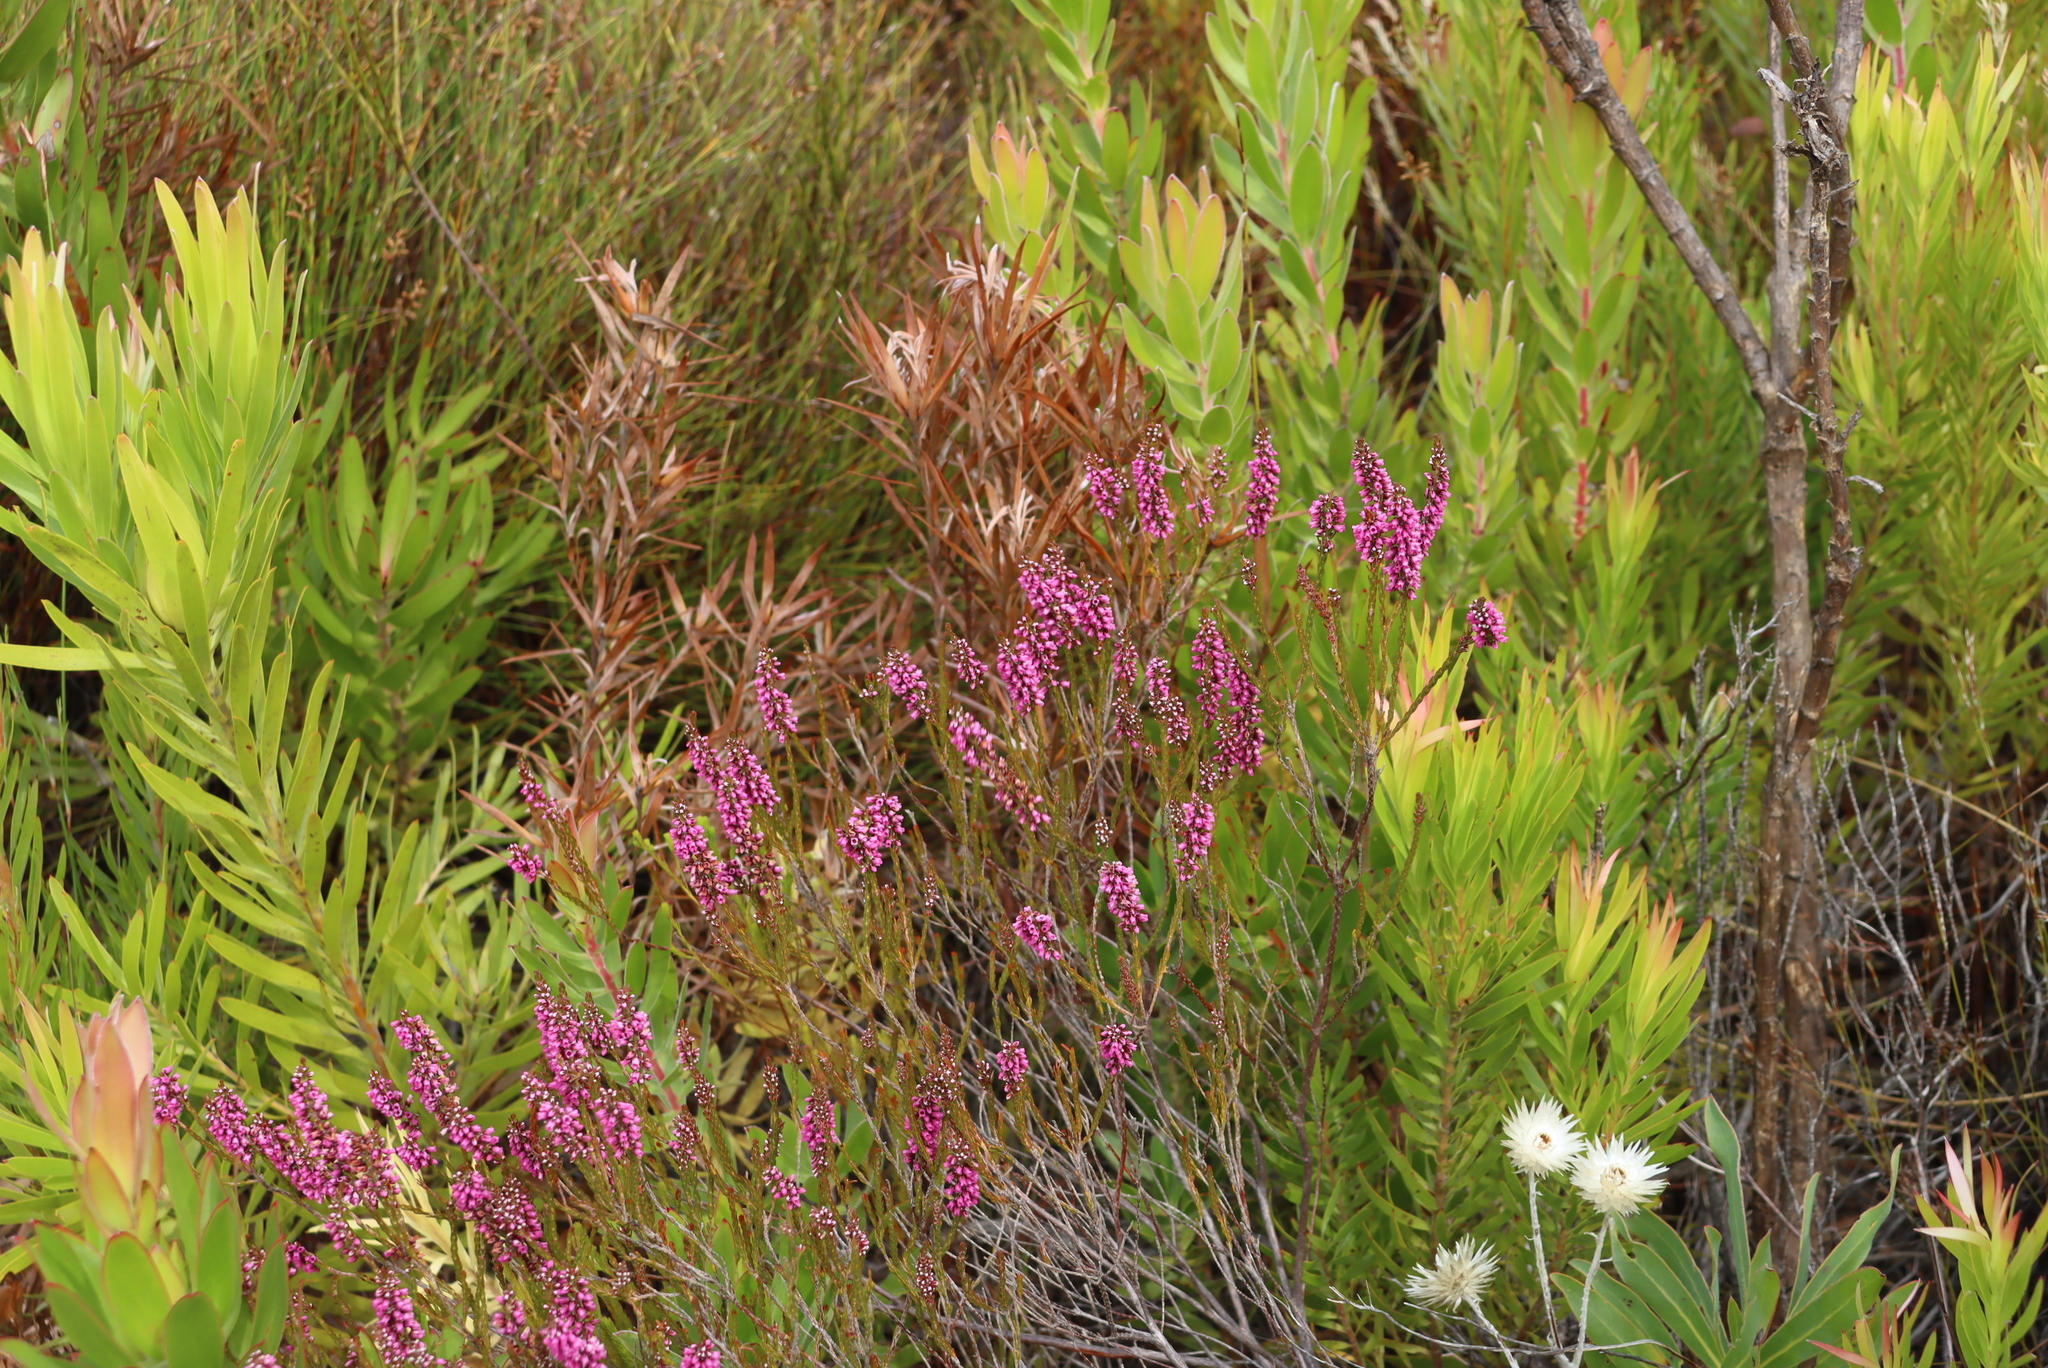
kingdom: Plantae
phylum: Tracheophyta
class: Magnoliopsida
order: Ericales
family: Ericaceae
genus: Erica
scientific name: Erica pulchella
